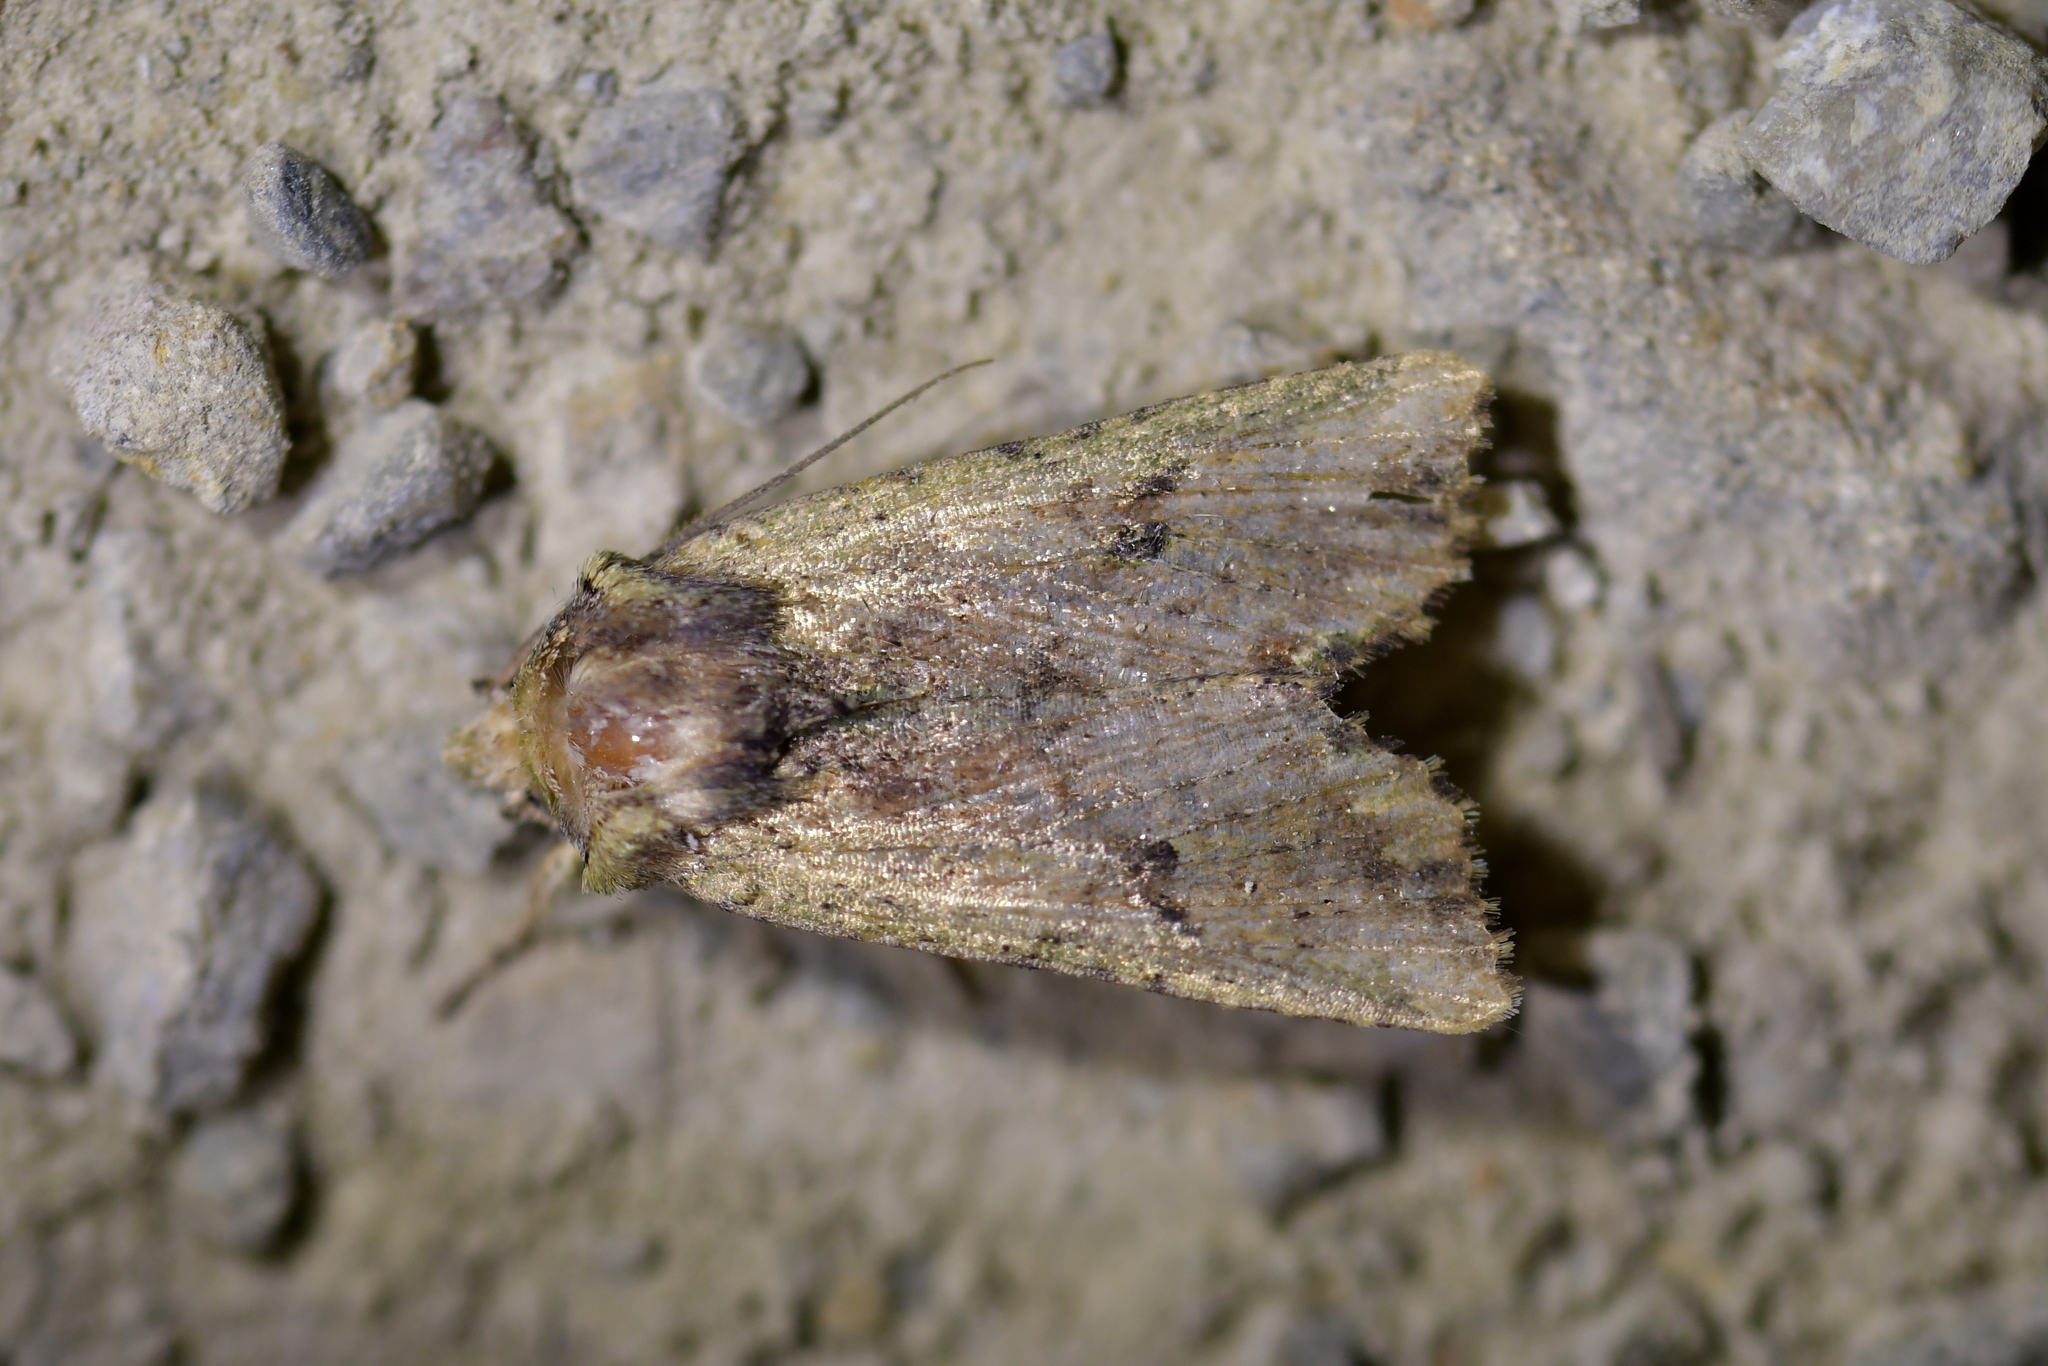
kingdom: Animalia
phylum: Arthropoda
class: Insecta
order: Lepidoptera
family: Noctuidae
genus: Meterana
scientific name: Meterana coeleno
